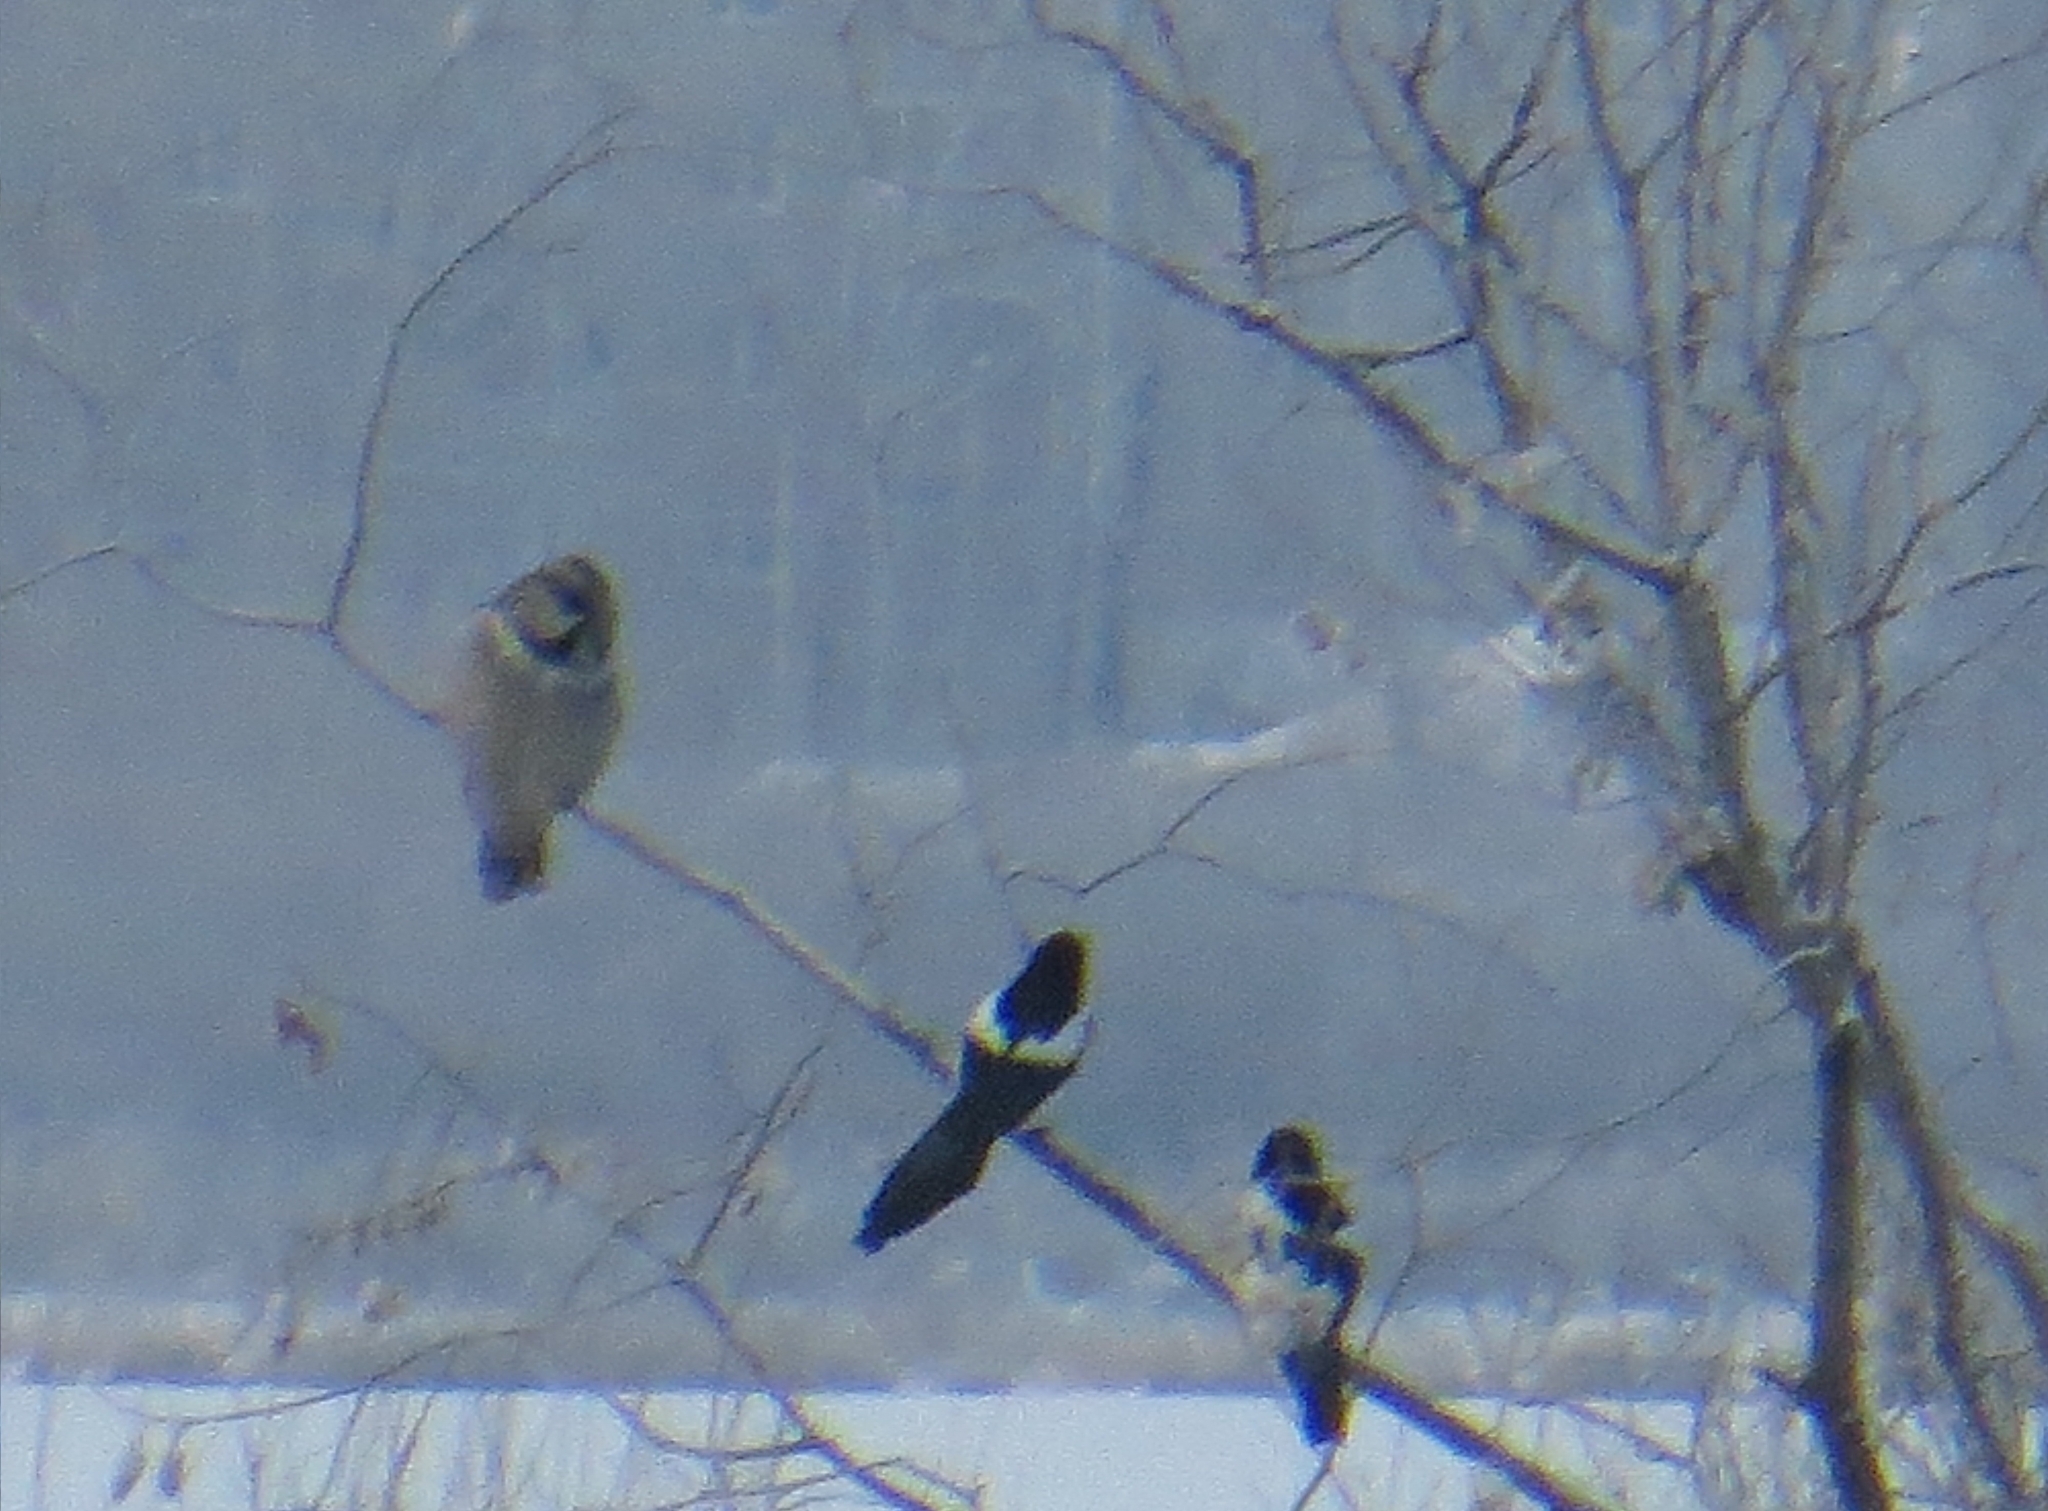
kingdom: Animalia
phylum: Chordata
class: Aves
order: Strigiformes
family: Strigidae
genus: Surnia
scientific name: Surnia ulula
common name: Northern hawk-owl
